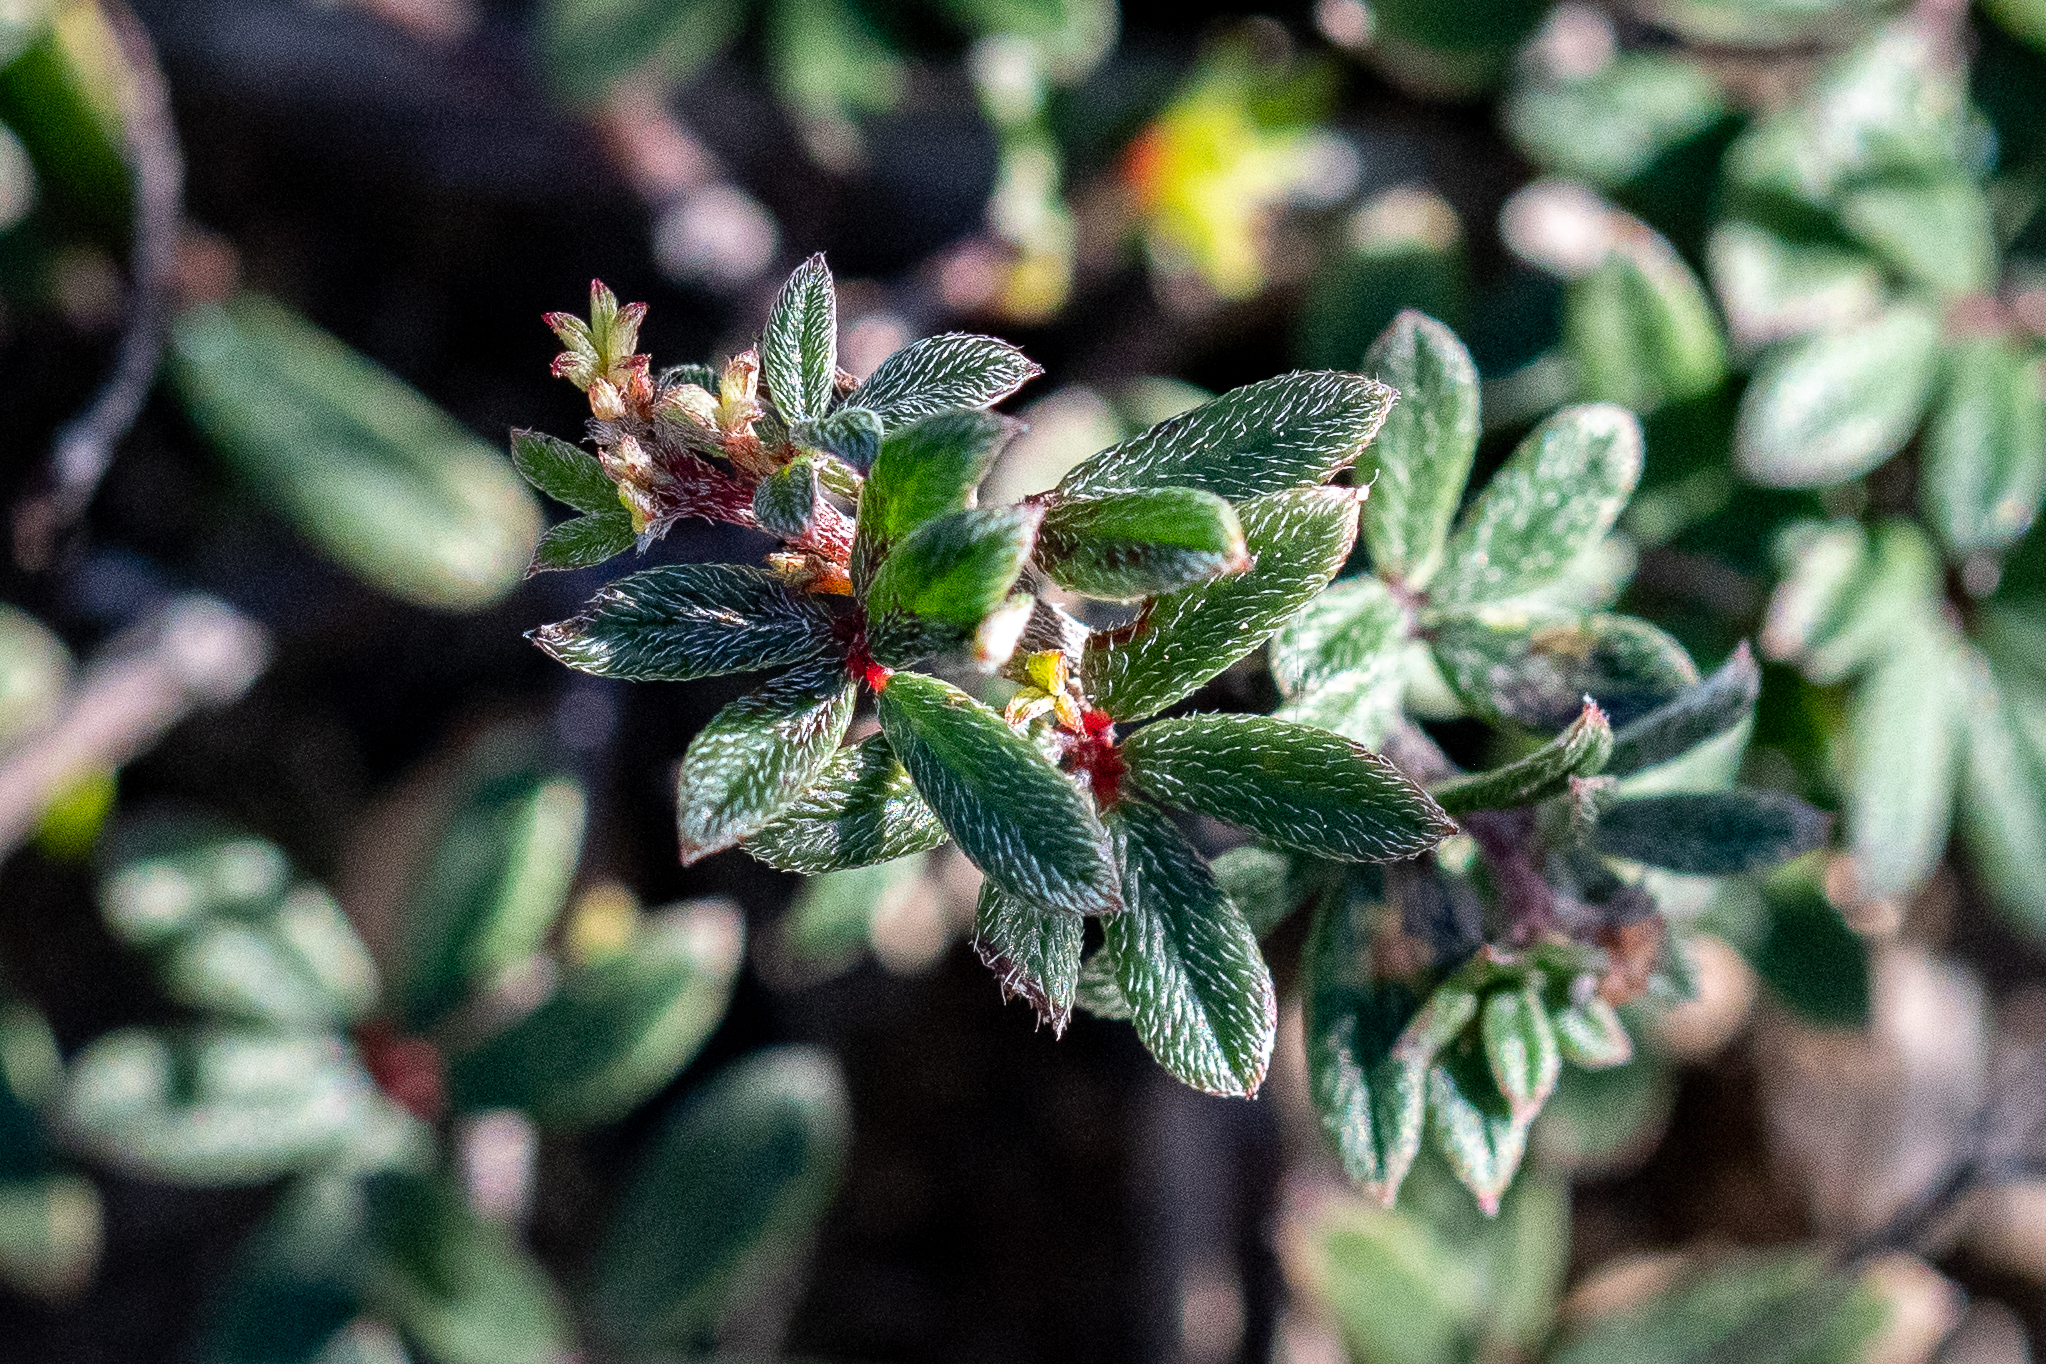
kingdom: Plantae
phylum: Tracheophyta
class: Magnoliopsida
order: Fabales
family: Fabaceae
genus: Indigofera
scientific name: Indigofera angustifolia
